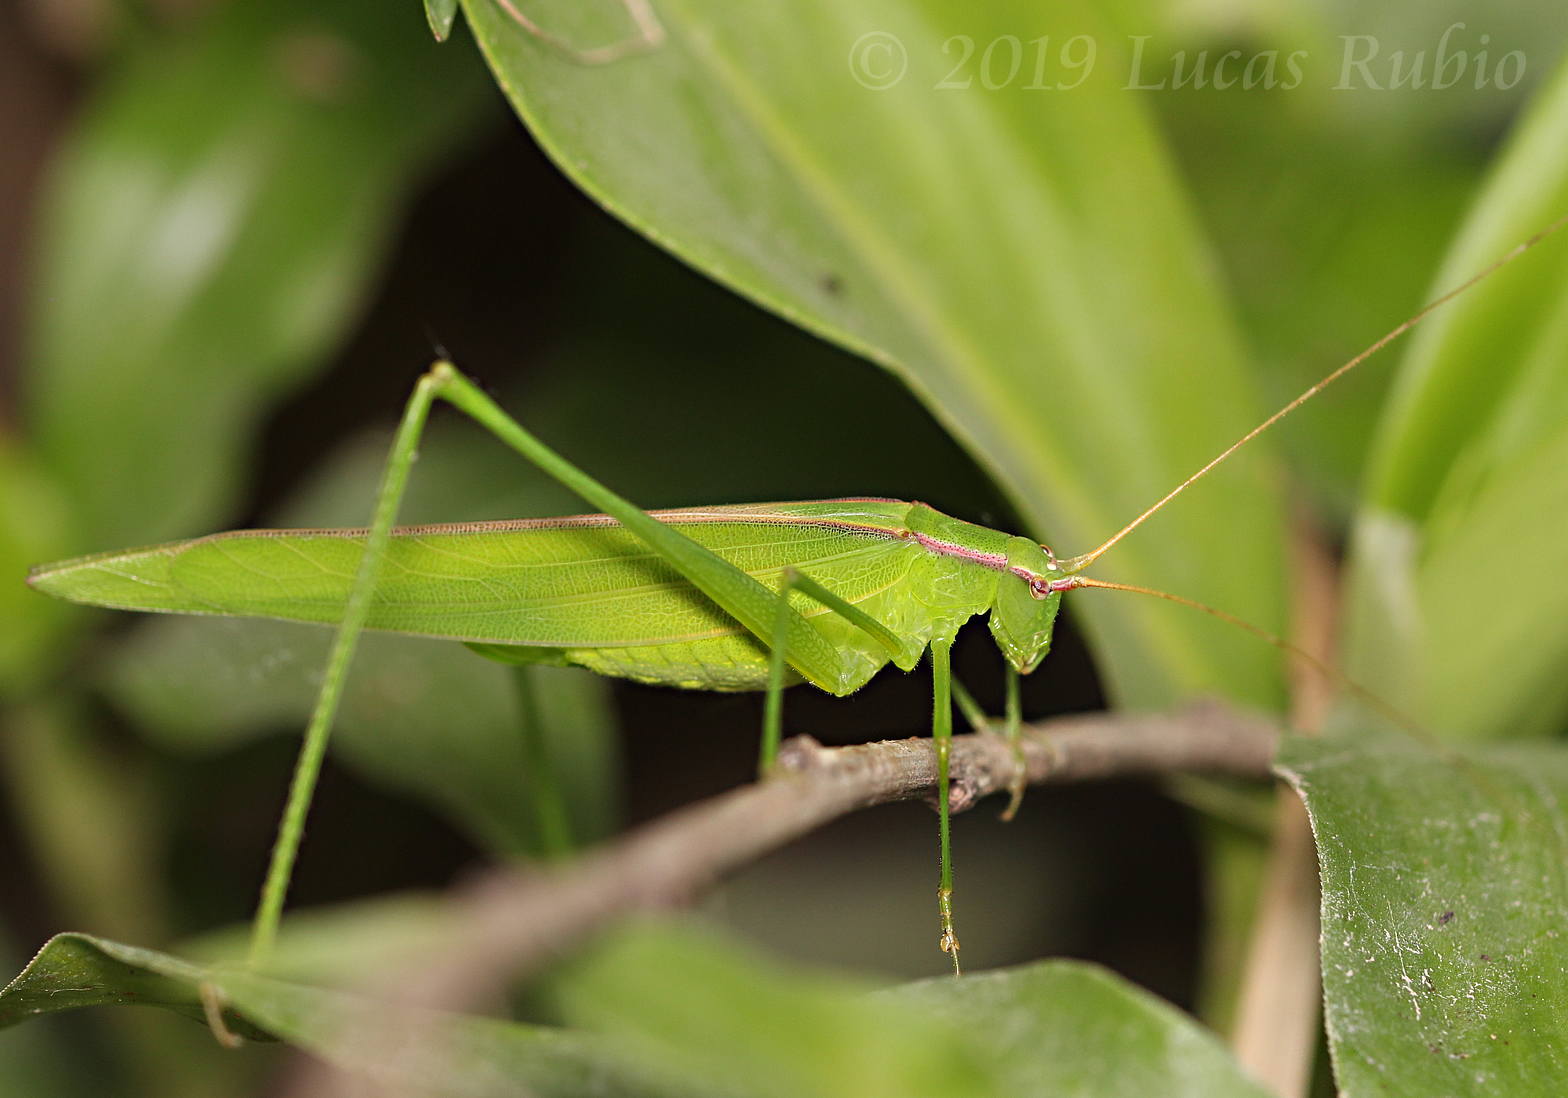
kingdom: Animalia
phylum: Arthropoda
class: Insecta
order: Orthoptera
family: Tettigoniidae
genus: Hyperophora
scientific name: Hyperophora major
